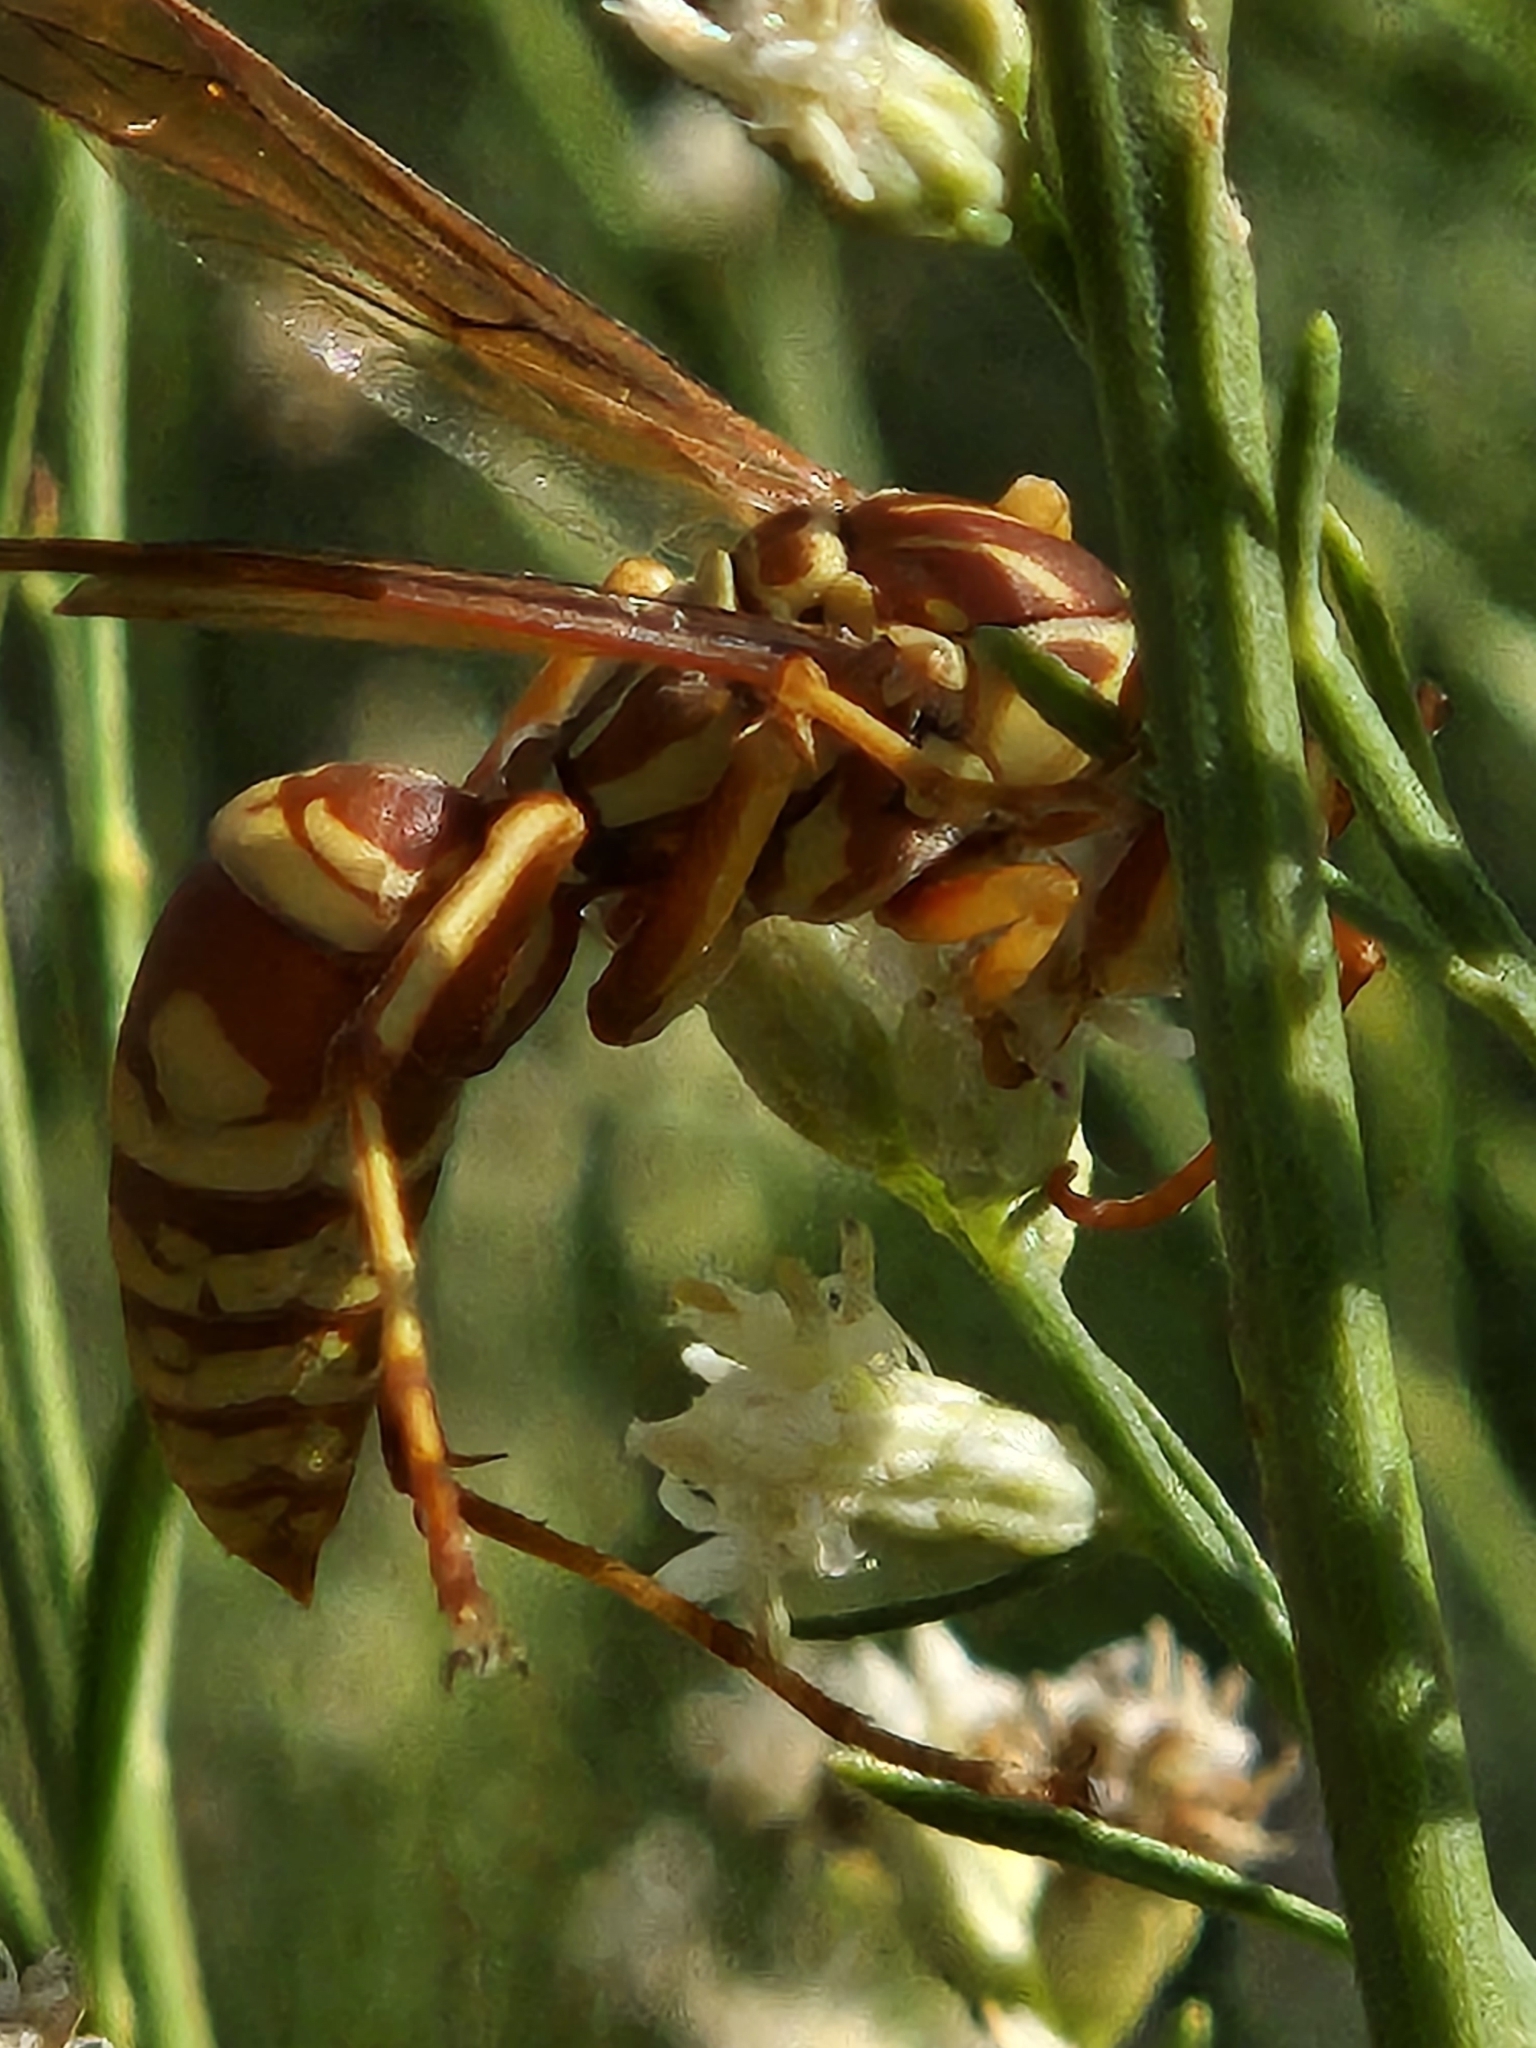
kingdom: Animalia
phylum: Arthropoda
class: Insecta
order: Hymenoptera
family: Eumenidae
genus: Polistes
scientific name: Polistes apachus
